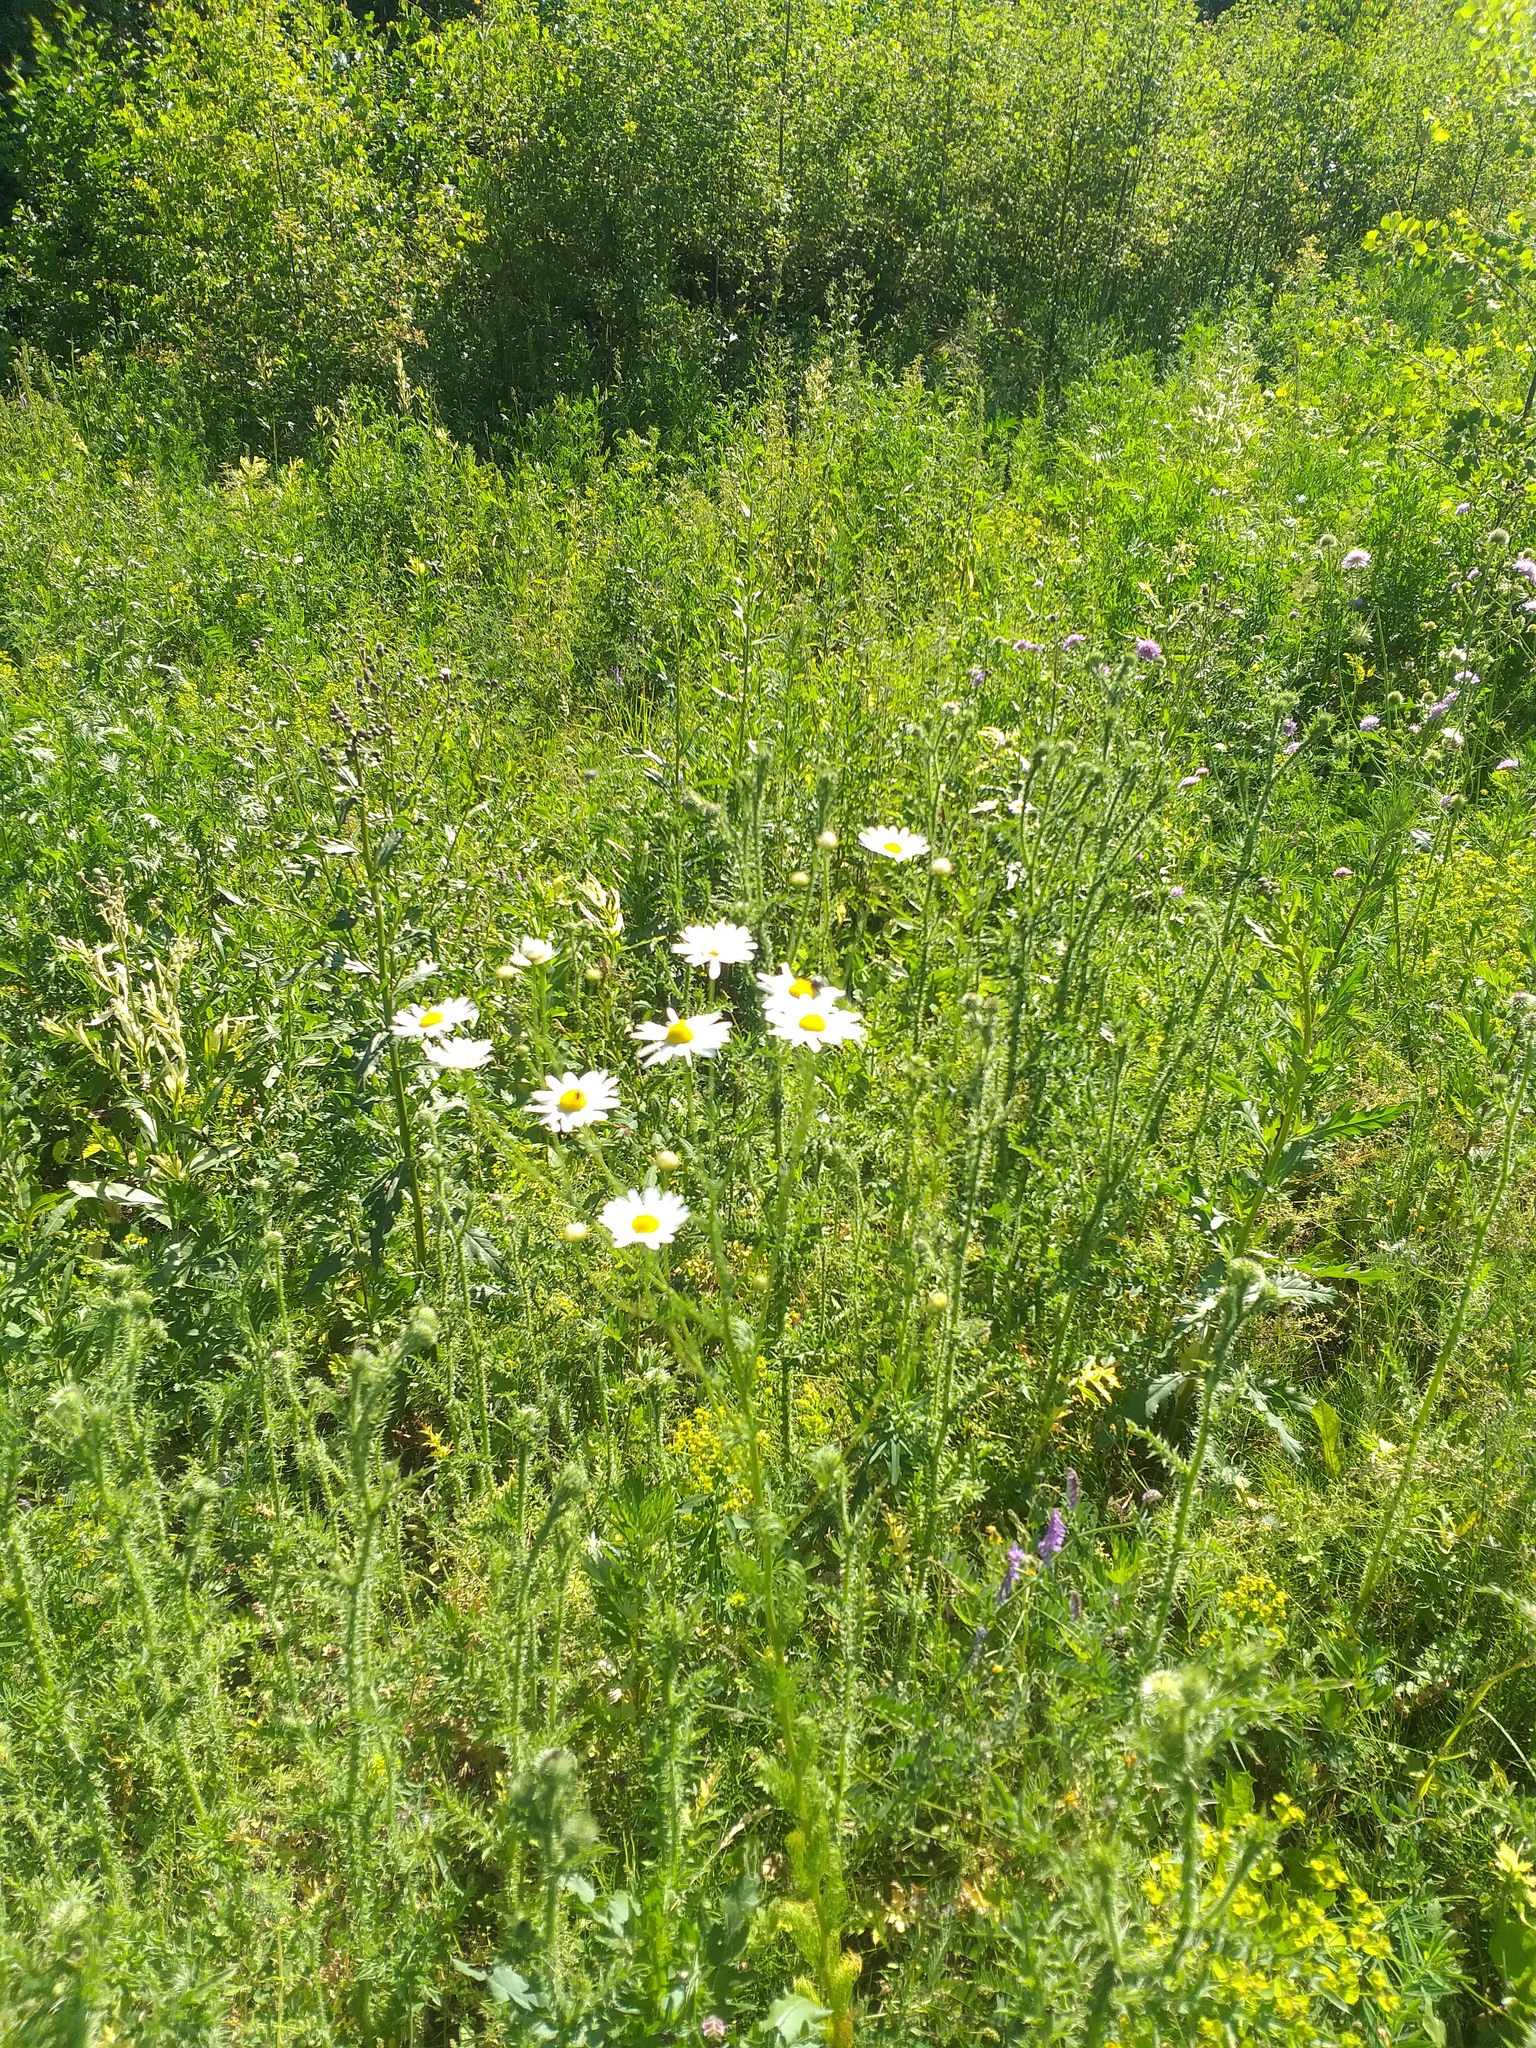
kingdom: Plantae
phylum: Tracheophyta
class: Magnoliopsida
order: Asterales
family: Asteraceae
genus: Tripleurospermum
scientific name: Tripleurospermum inodorum
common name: Scentless mayweed
